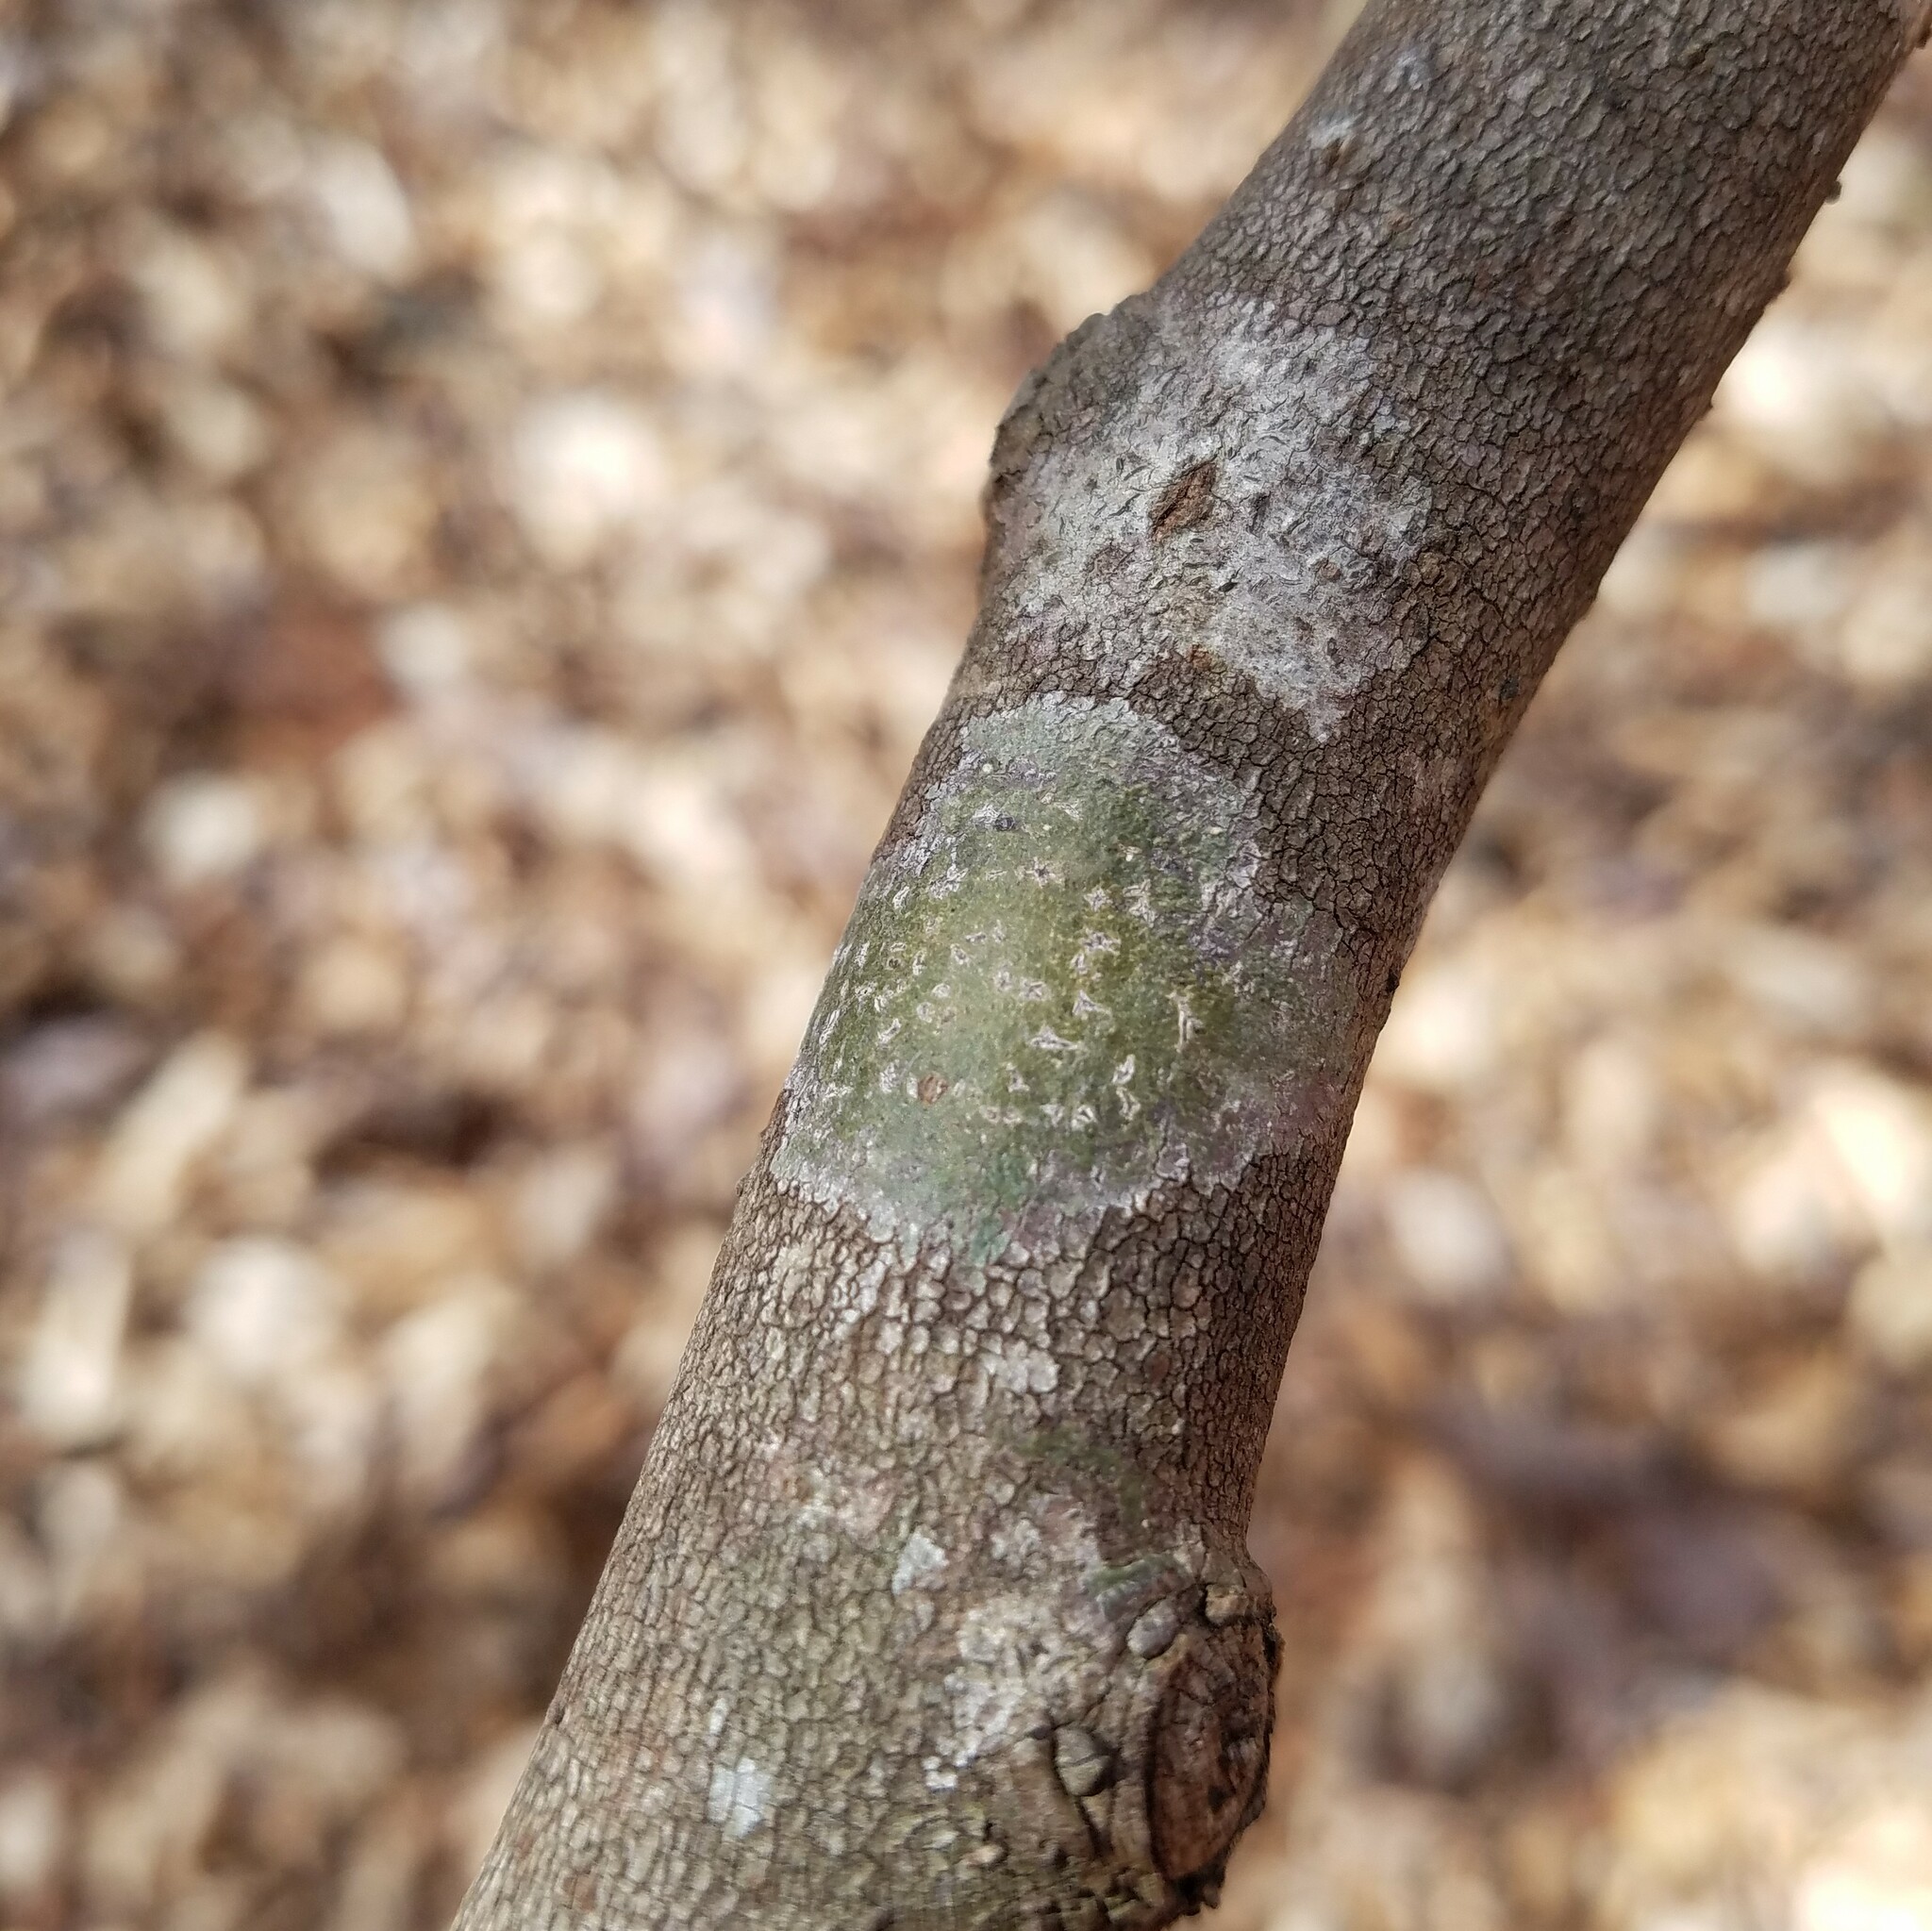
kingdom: Fungi
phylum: Ascomycota
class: Lecanoromycetes
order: Ostropales
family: Graphidaceae
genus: Creographa
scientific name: Creographa brasiliensis
